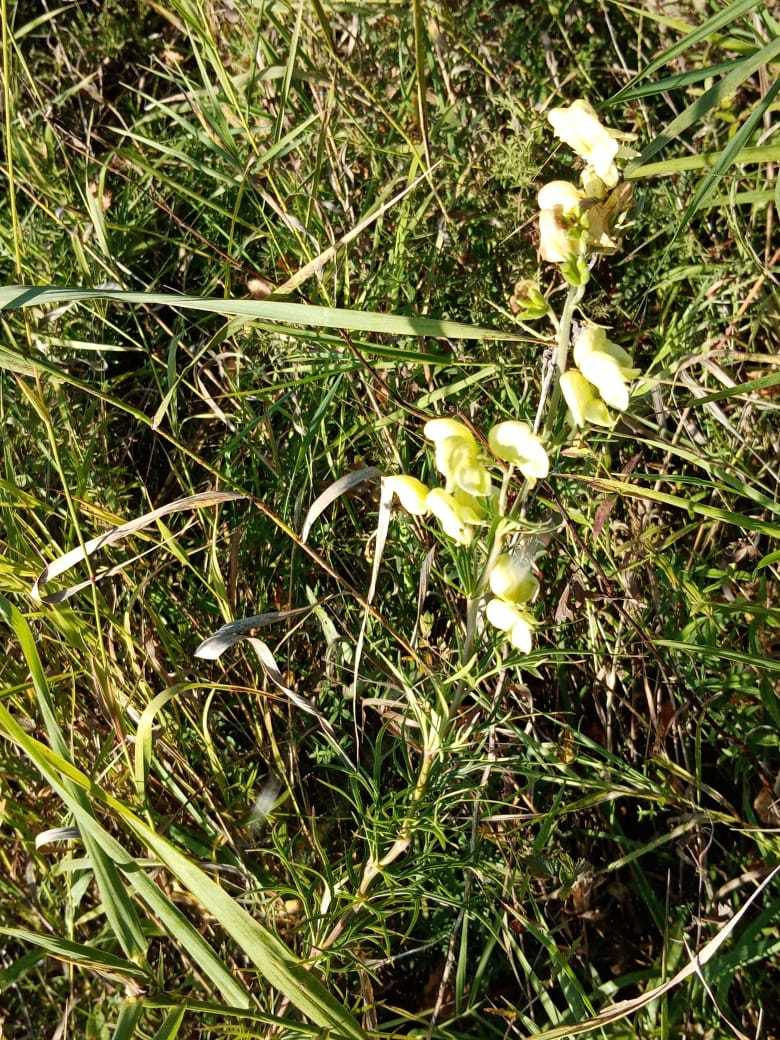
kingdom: Plantae
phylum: Tracheophyta
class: Magnoliopsida
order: Ranunculales
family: Ranunculaceae
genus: Aconitum
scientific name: Aconitum anthora
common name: Yellow monkshood
